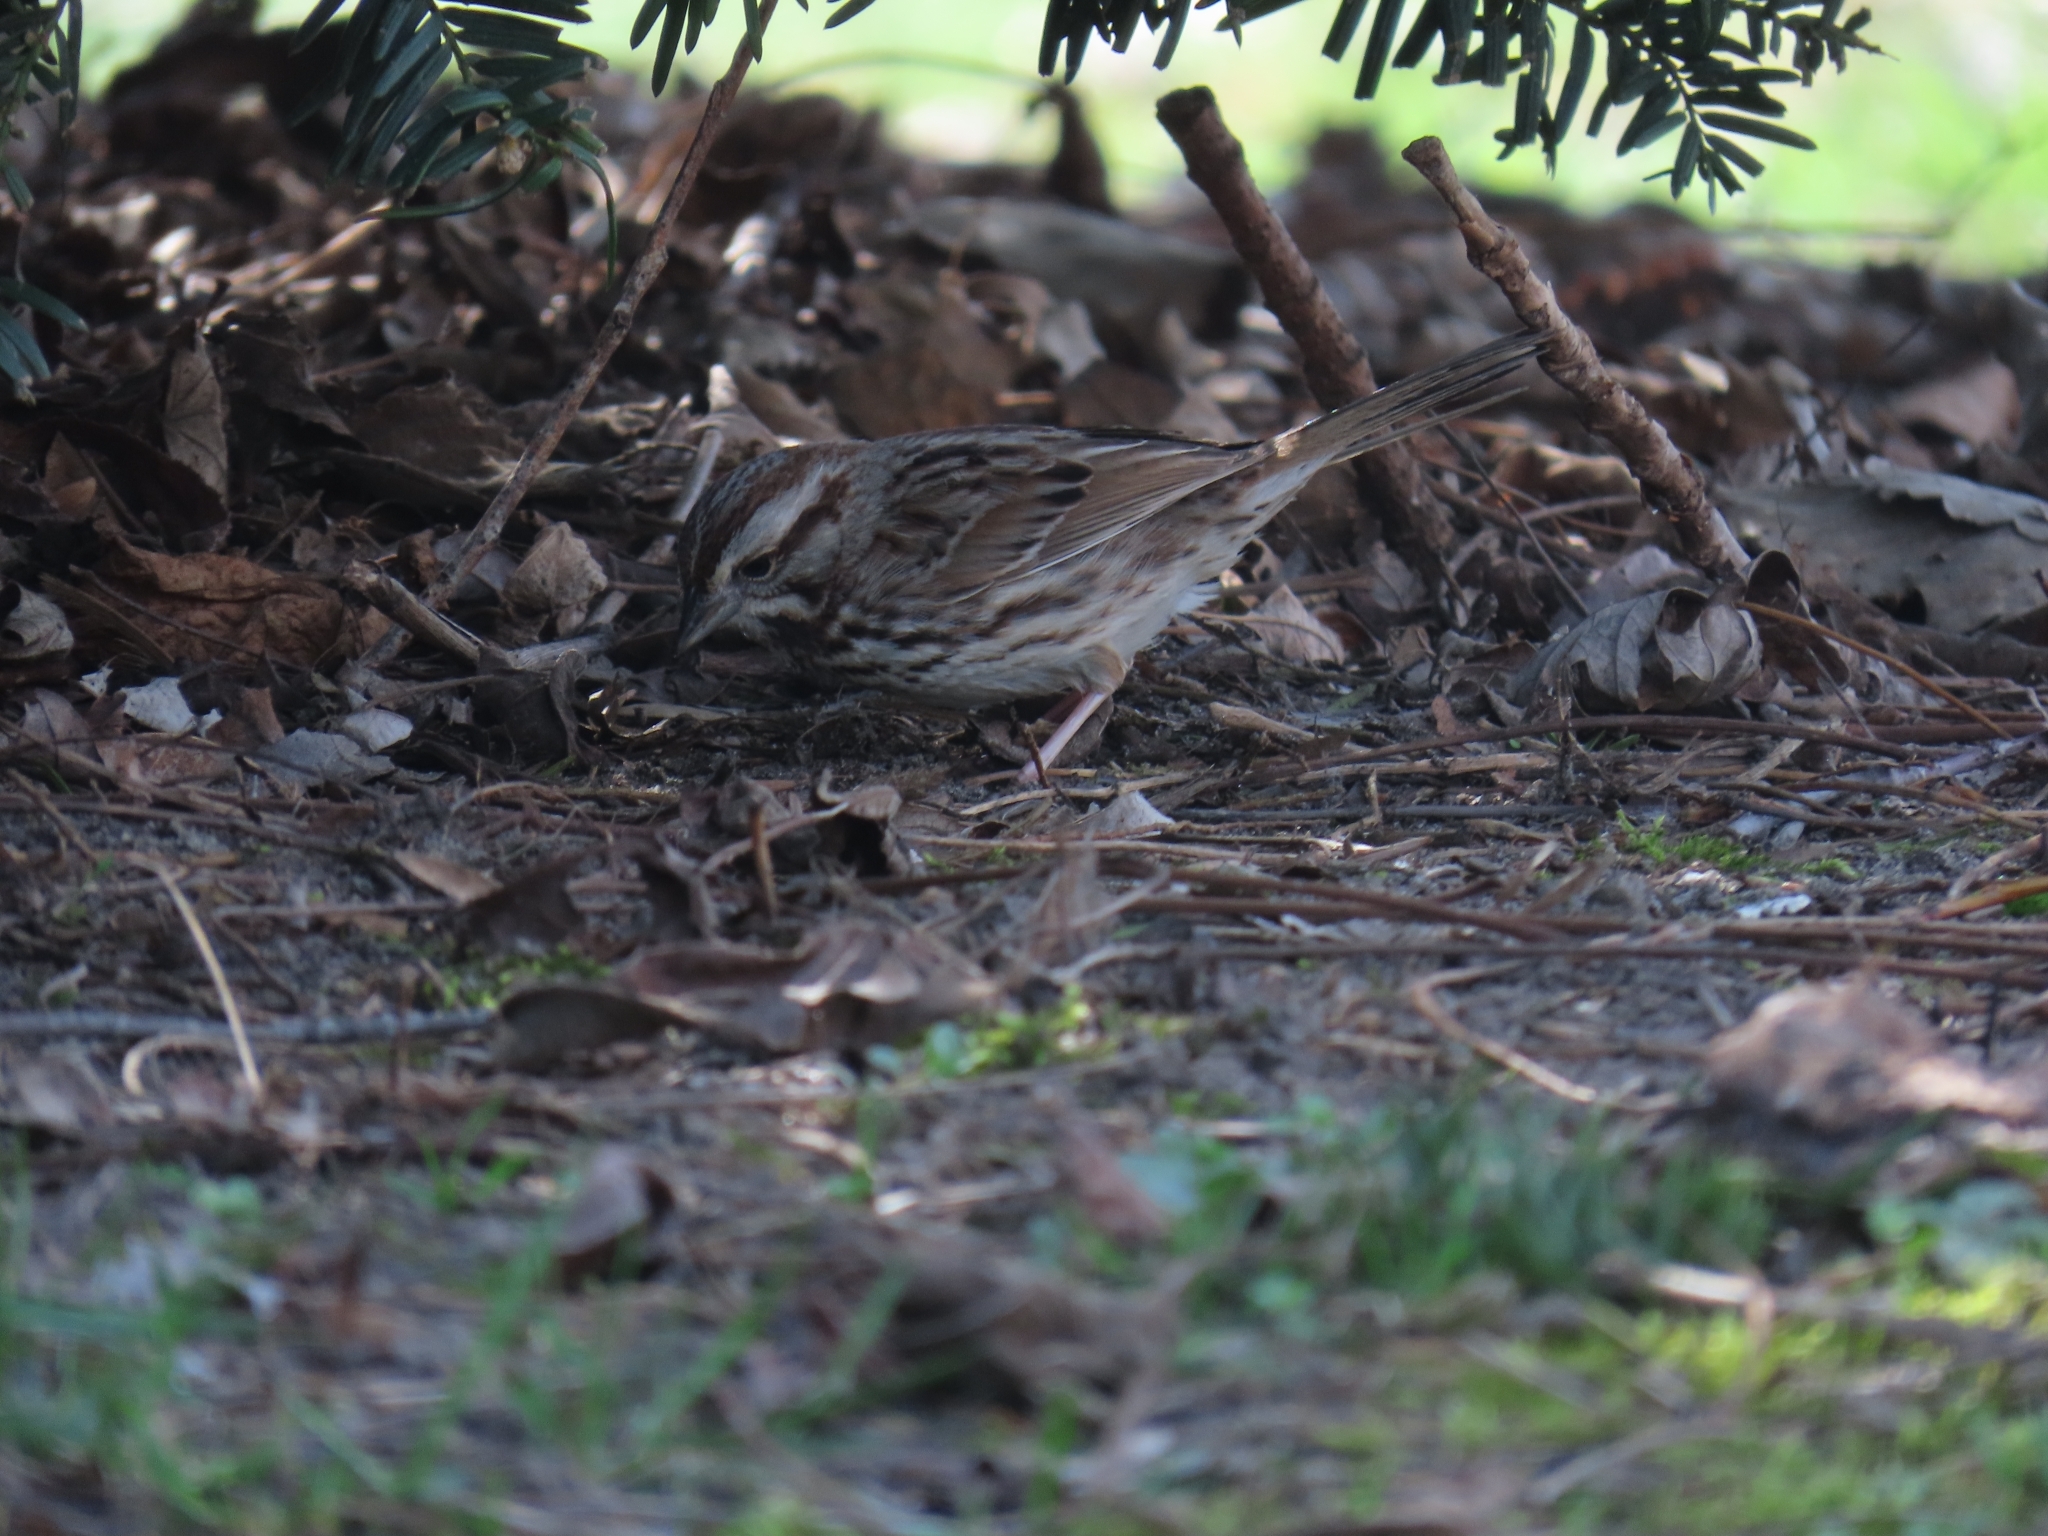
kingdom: Animalia
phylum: Chordata
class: Aves
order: Passeriformes
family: Passerellidae
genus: Melospiza
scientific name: Melospiza melodia
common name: Song sparrow
